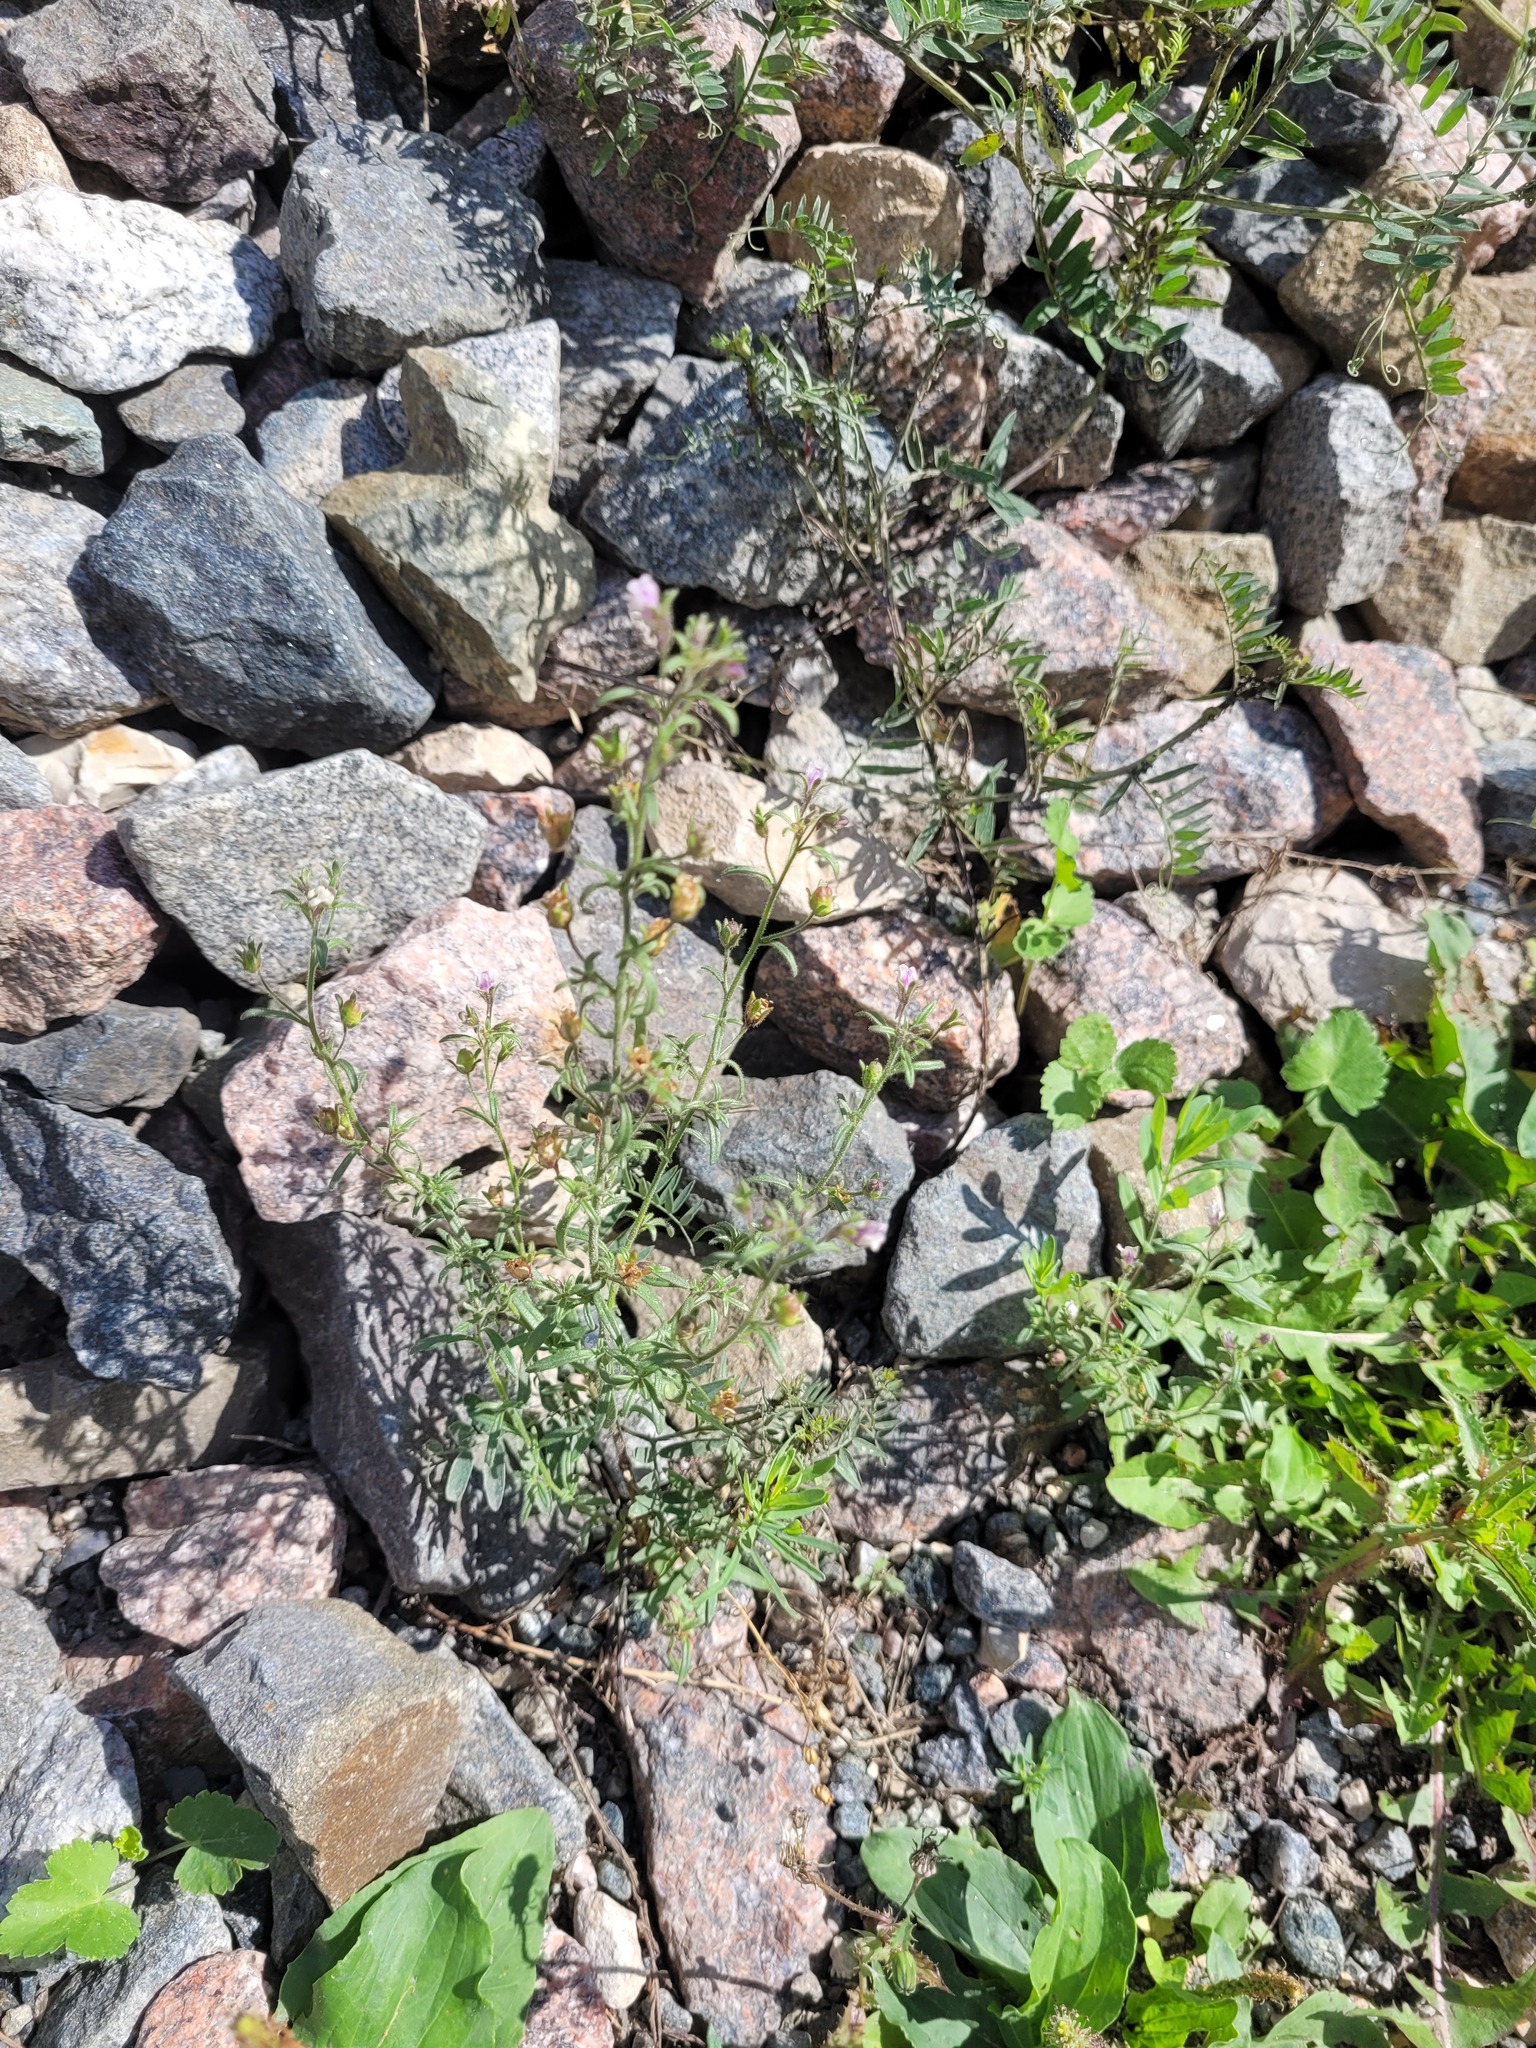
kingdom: Plantae
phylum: Tracheophyta
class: Magnoliopsida
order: Lamiales
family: Plantaginaceae
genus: Chaenorhinum
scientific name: Chaenorhinum minus
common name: Dwarf snapdragon
